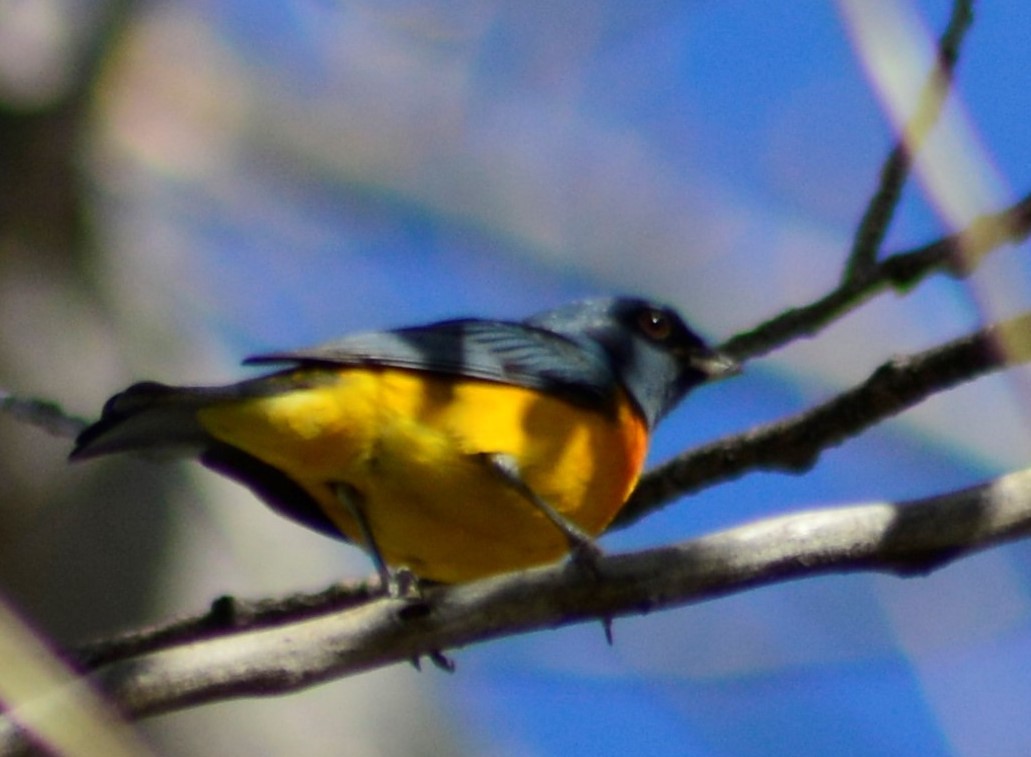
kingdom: Animalia
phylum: Chordata
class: Aves
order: Passeriformes
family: Thraupidae
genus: Rauenia
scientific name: Rauenia bonariensis
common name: Blue-and-yellow tanager
